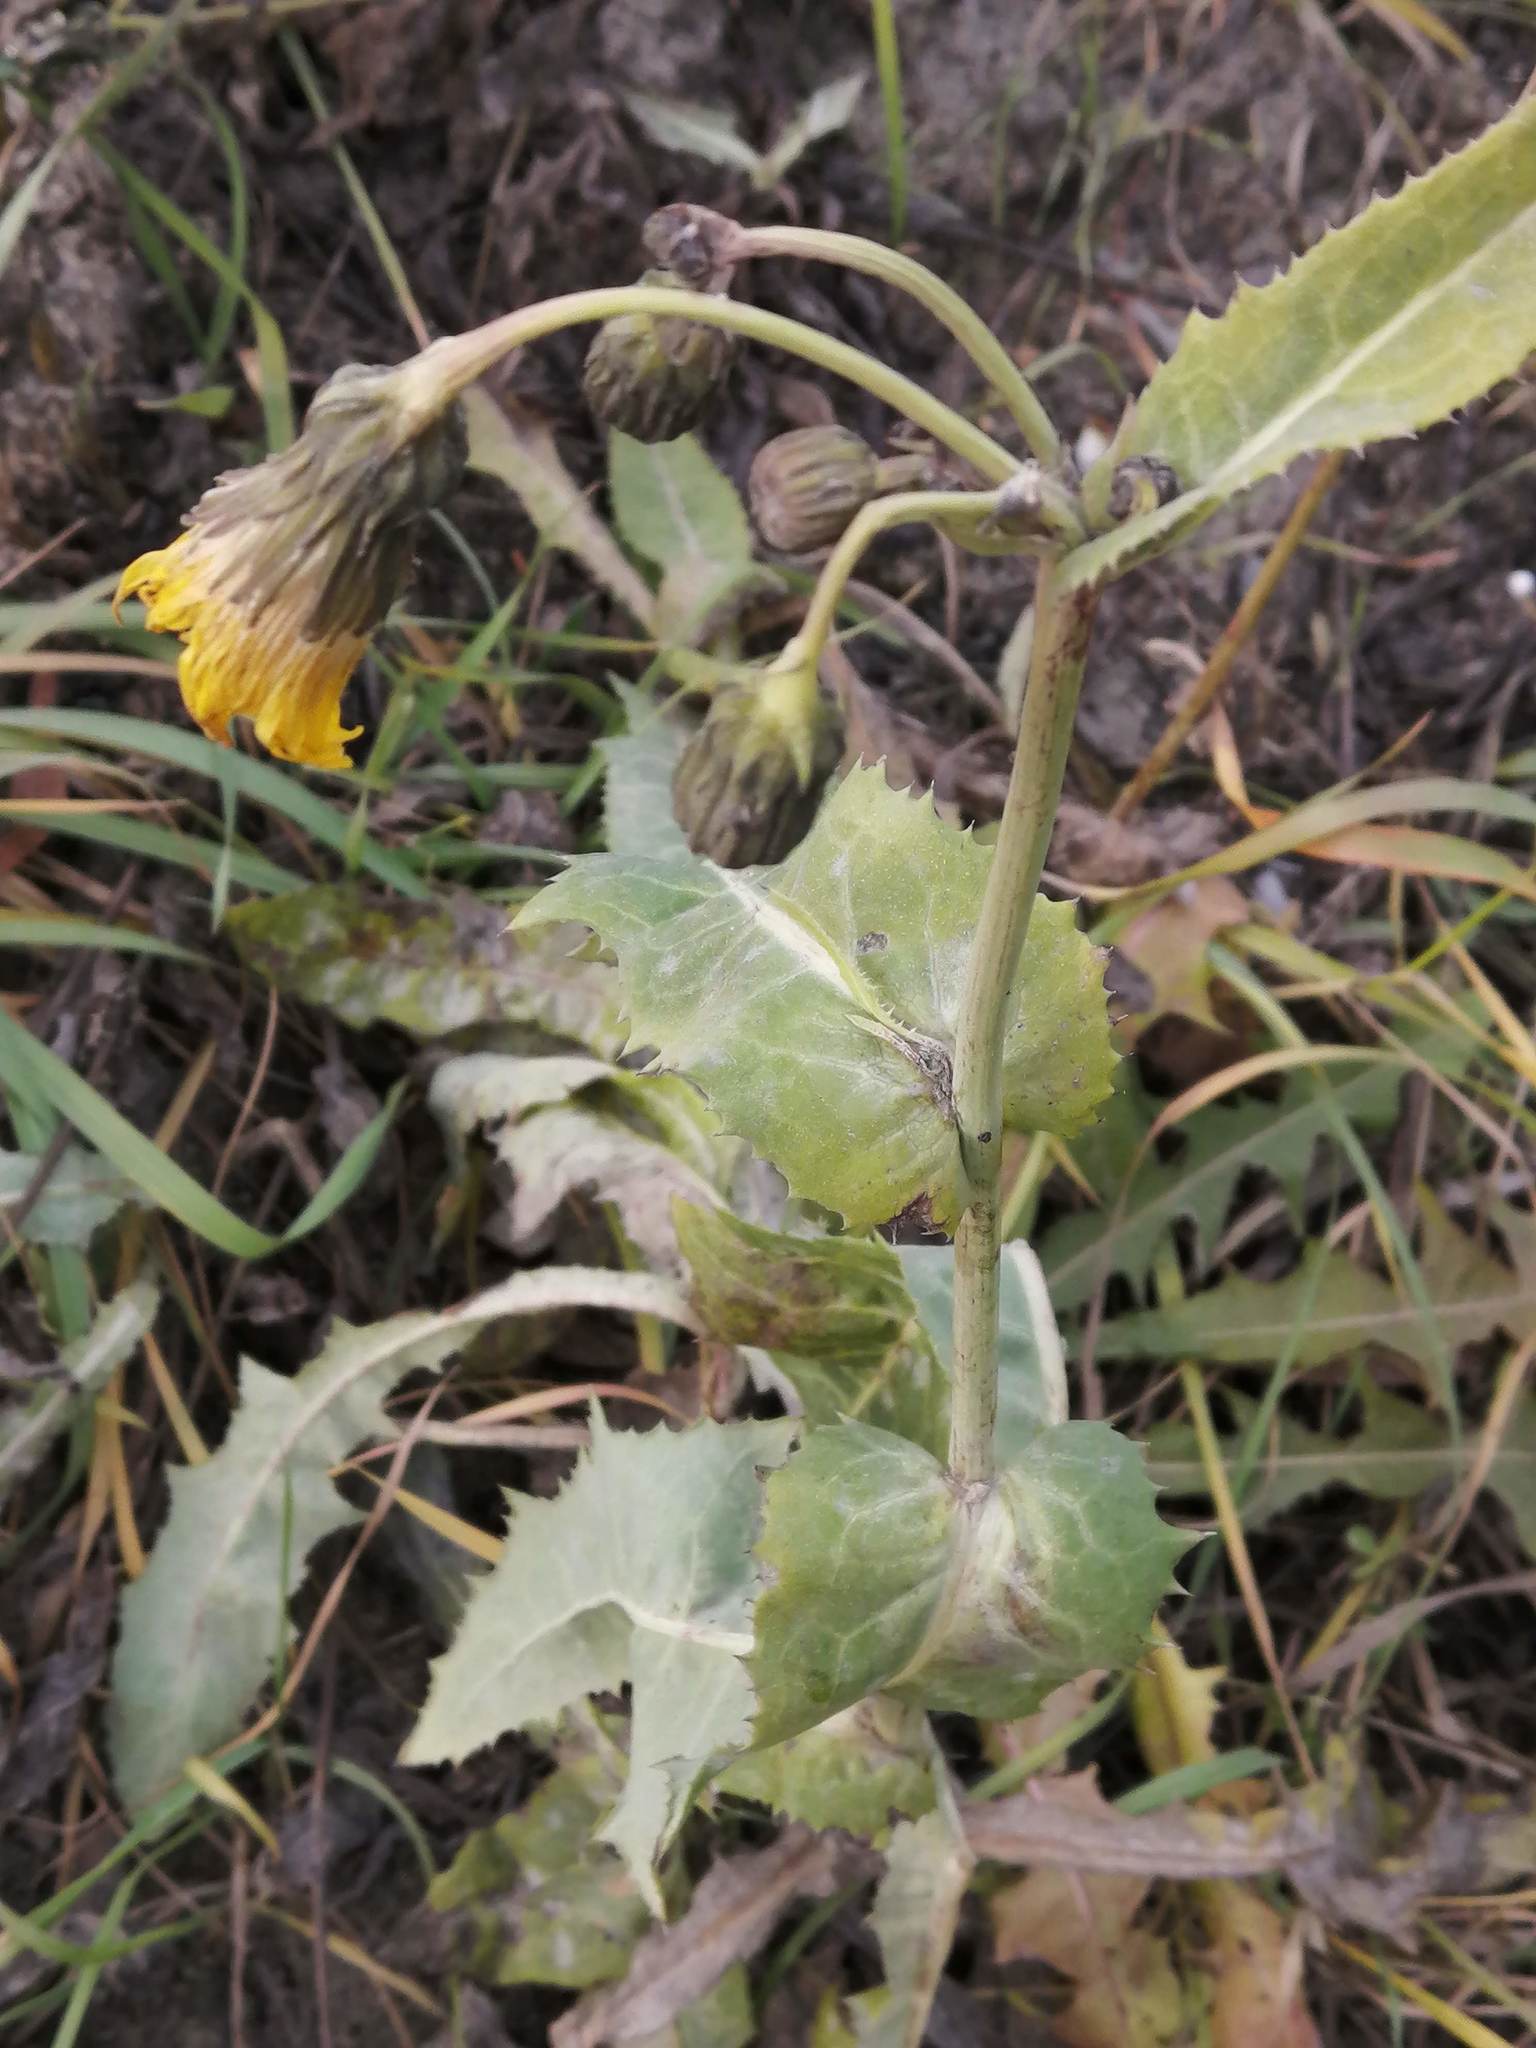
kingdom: Plantae
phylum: Tracheophyta
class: Magnoliopsida
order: Asterales
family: Asteraceae
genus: Sonchus
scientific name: Sonchus arvensis
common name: Perennial sow-thistle
